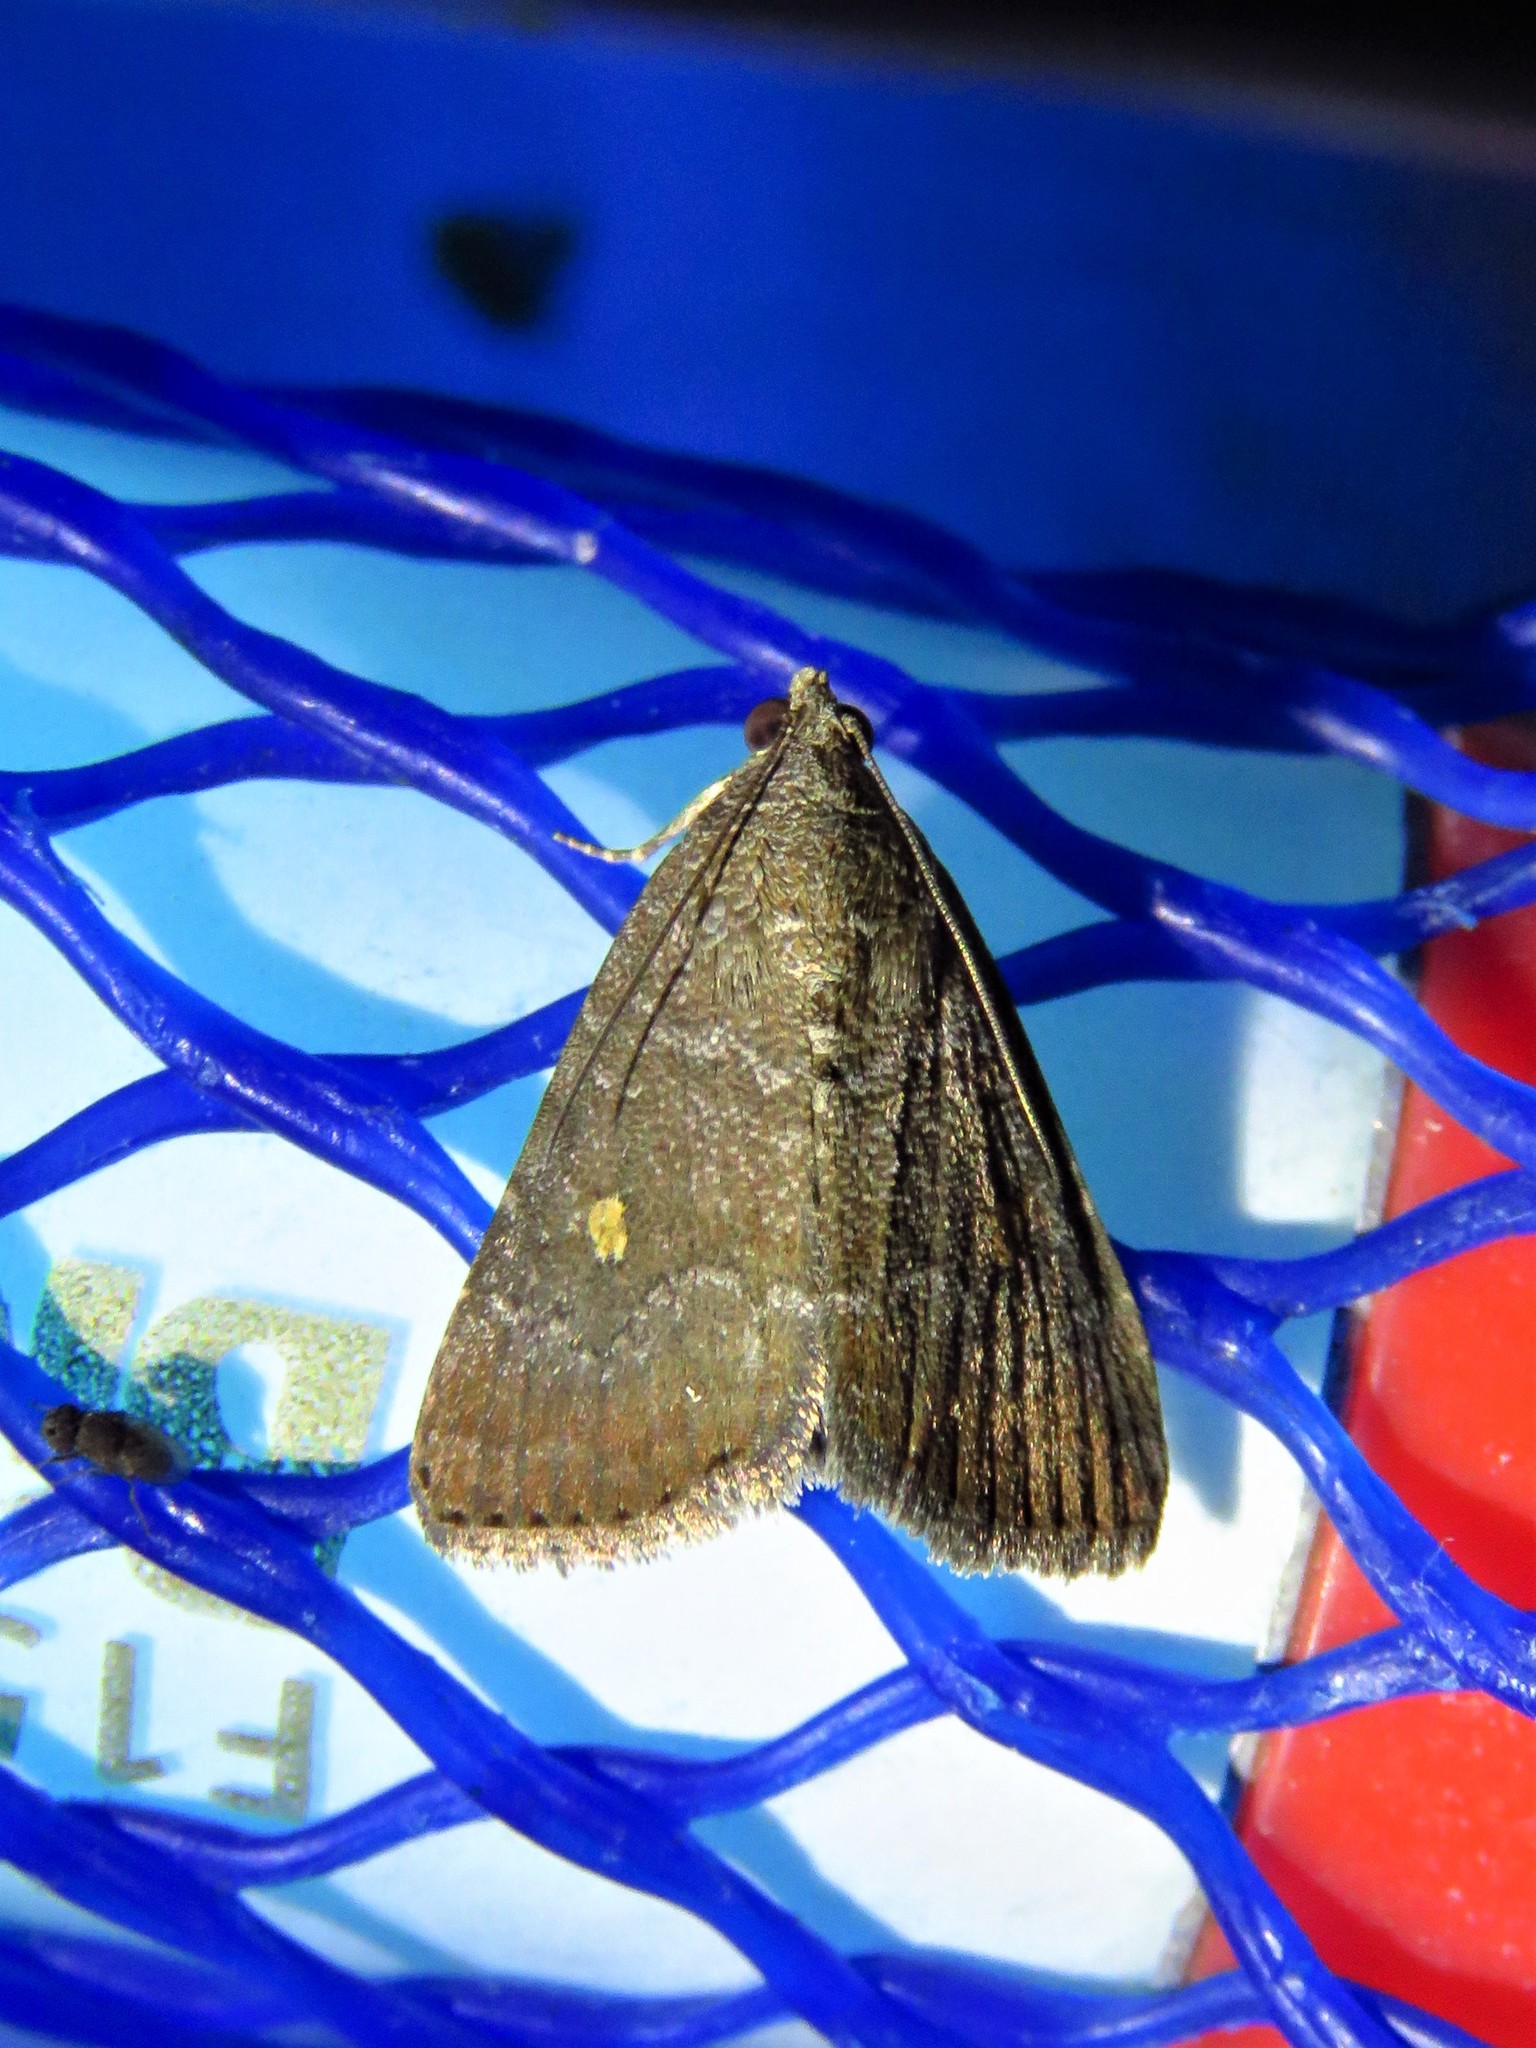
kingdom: Animalia
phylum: Arthropoda
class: Insecta
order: Lepidoptera
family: Noctuidae
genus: Amyna
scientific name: Amyna stricta
